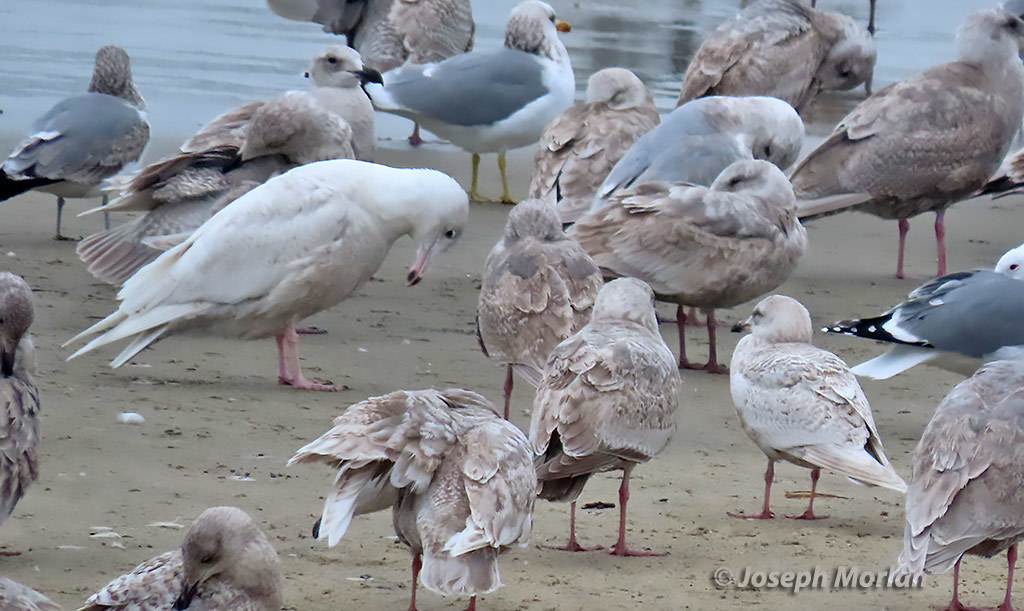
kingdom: Animalia
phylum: Chordata
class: Aves
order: Charadriiformes
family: Laridae
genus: Larus
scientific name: Larus glaucoides
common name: Iceland gull
